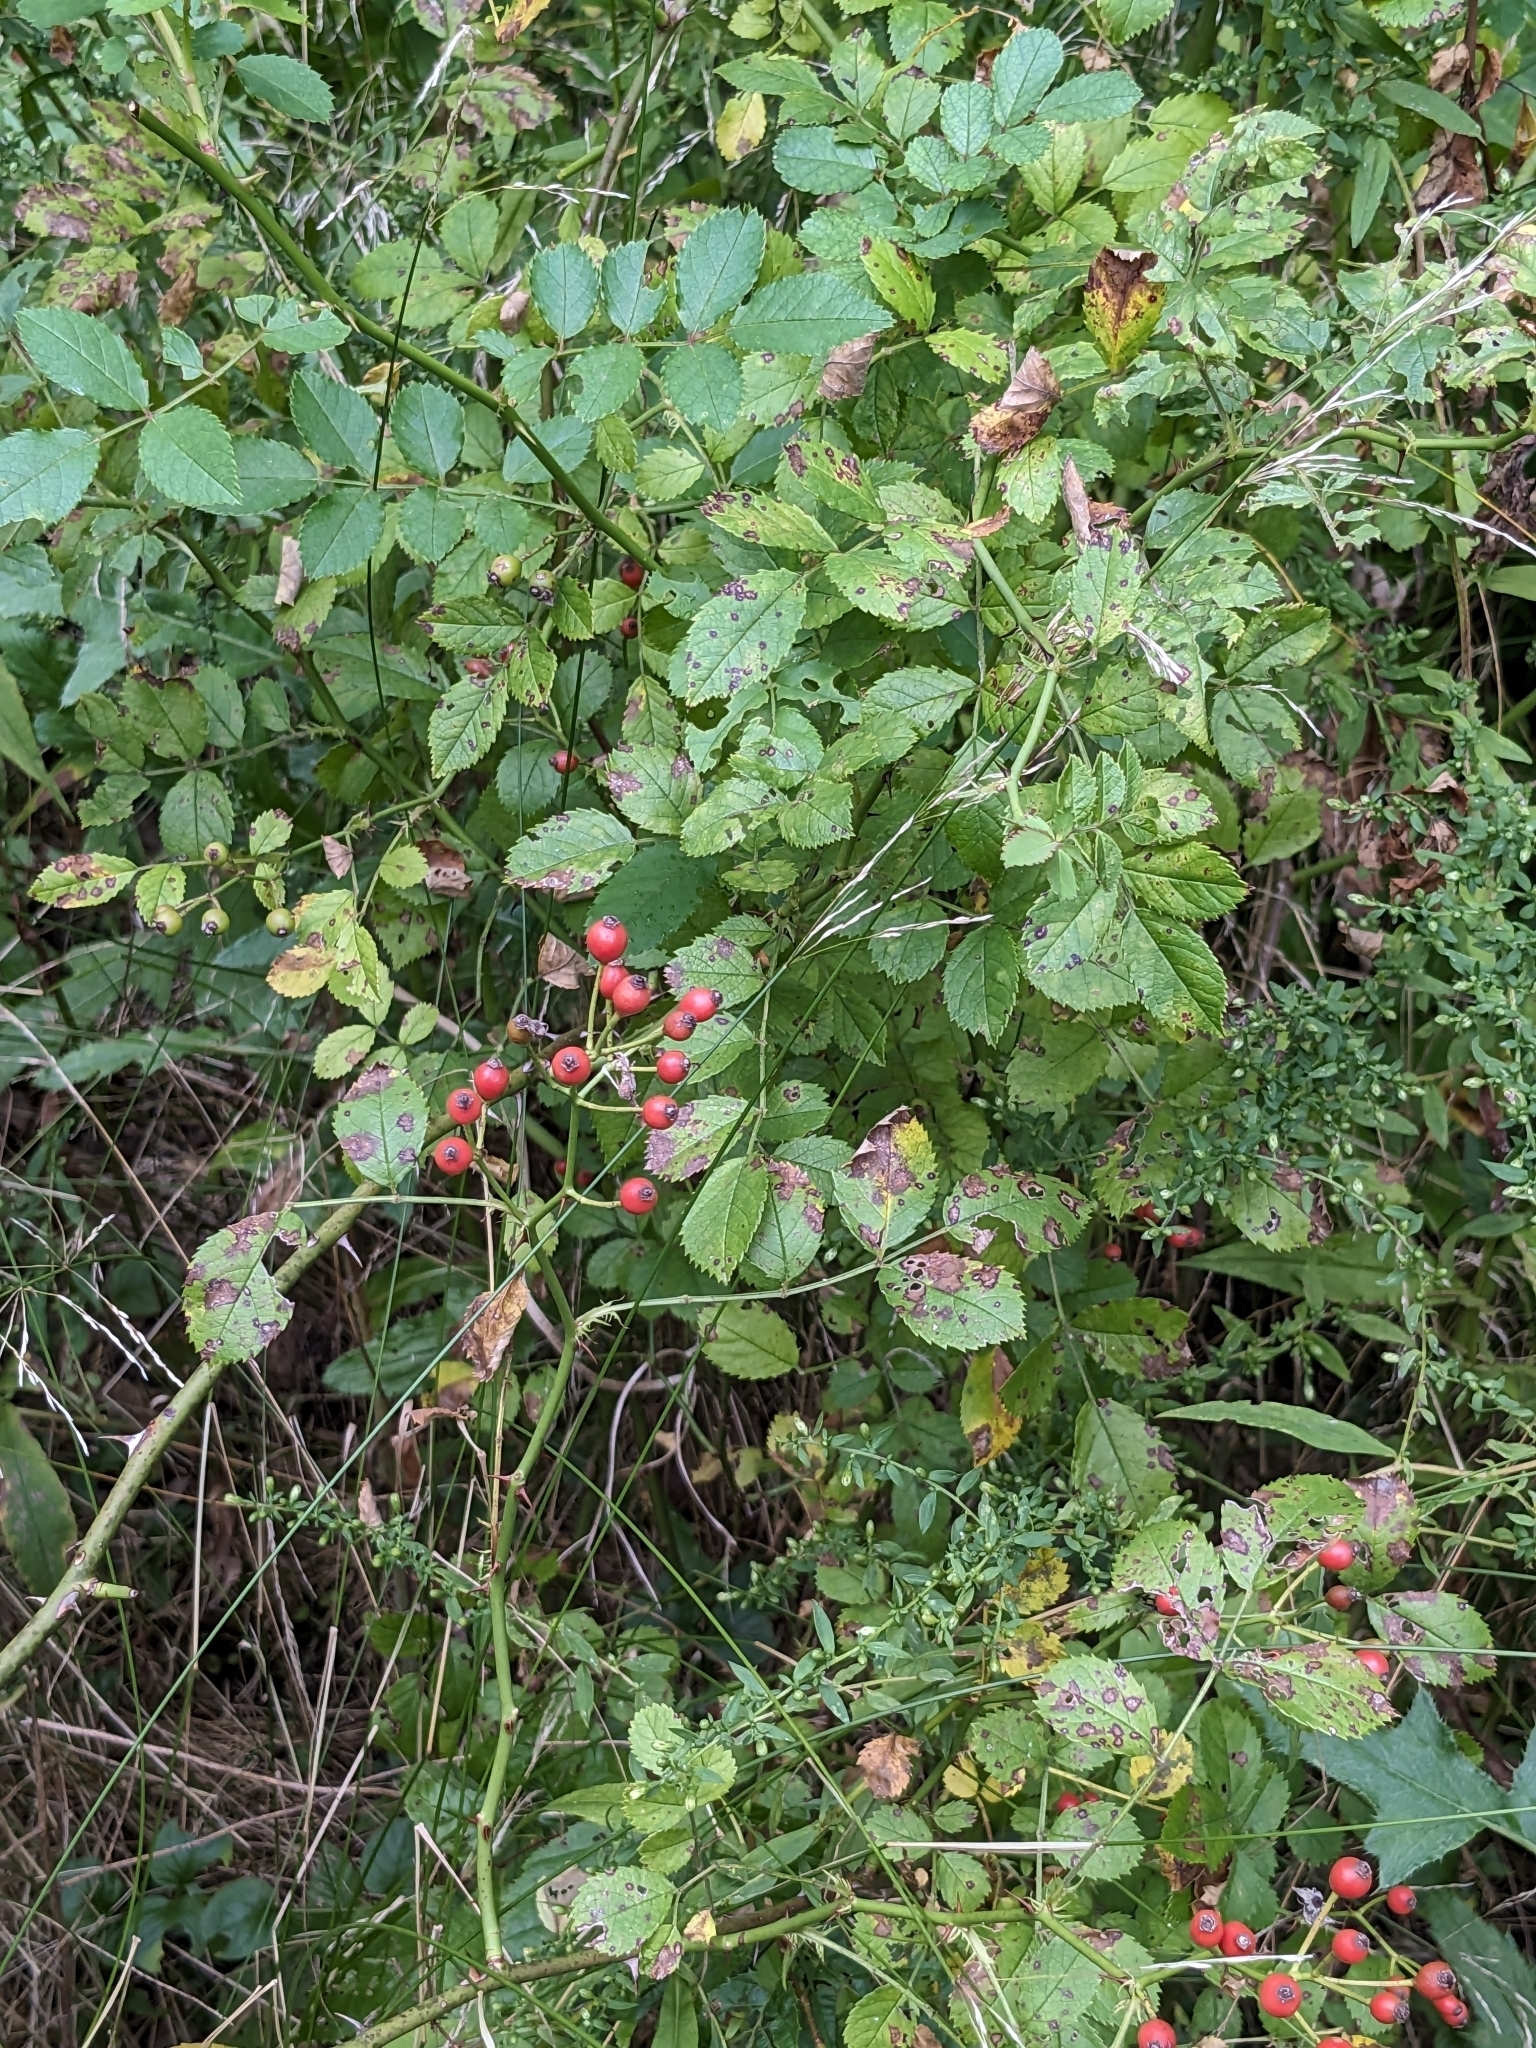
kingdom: Plantae
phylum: Tracheophyta
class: Magnoliopsida
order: Rosales
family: Rosaceae
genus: Rosa
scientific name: Rosa multiflora
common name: Multiflora rose
